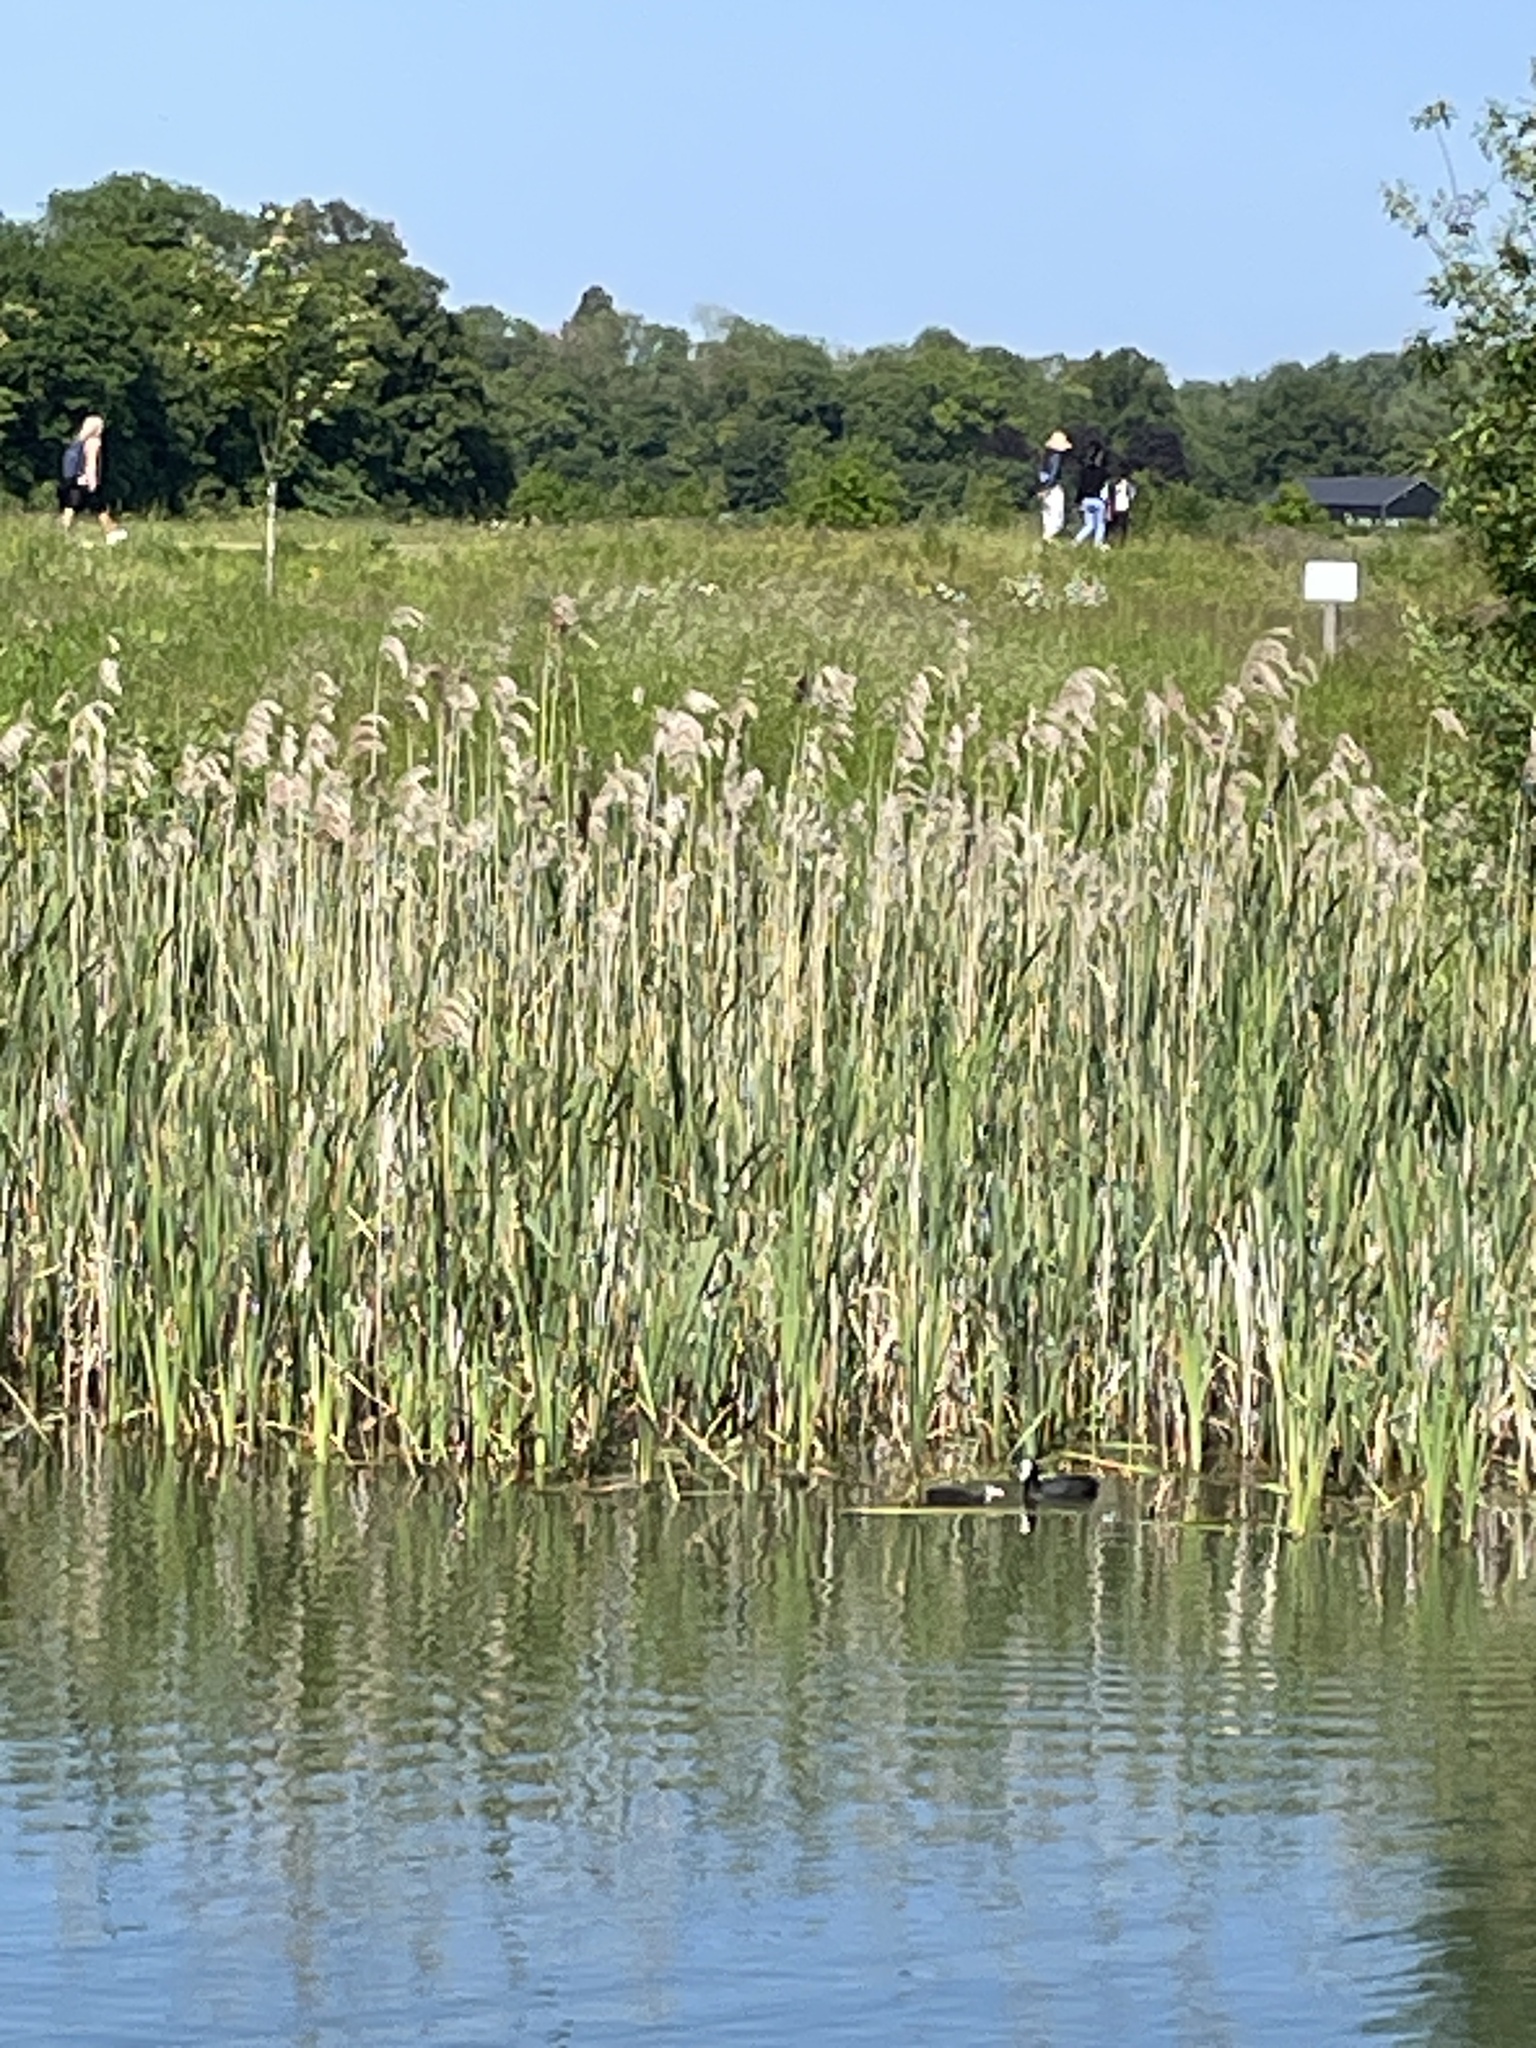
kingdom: Animalia
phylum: Chordata
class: Aves
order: Gruiformes
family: Rallidae
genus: Fulica
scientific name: Fulica atra
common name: Eurasian coot
